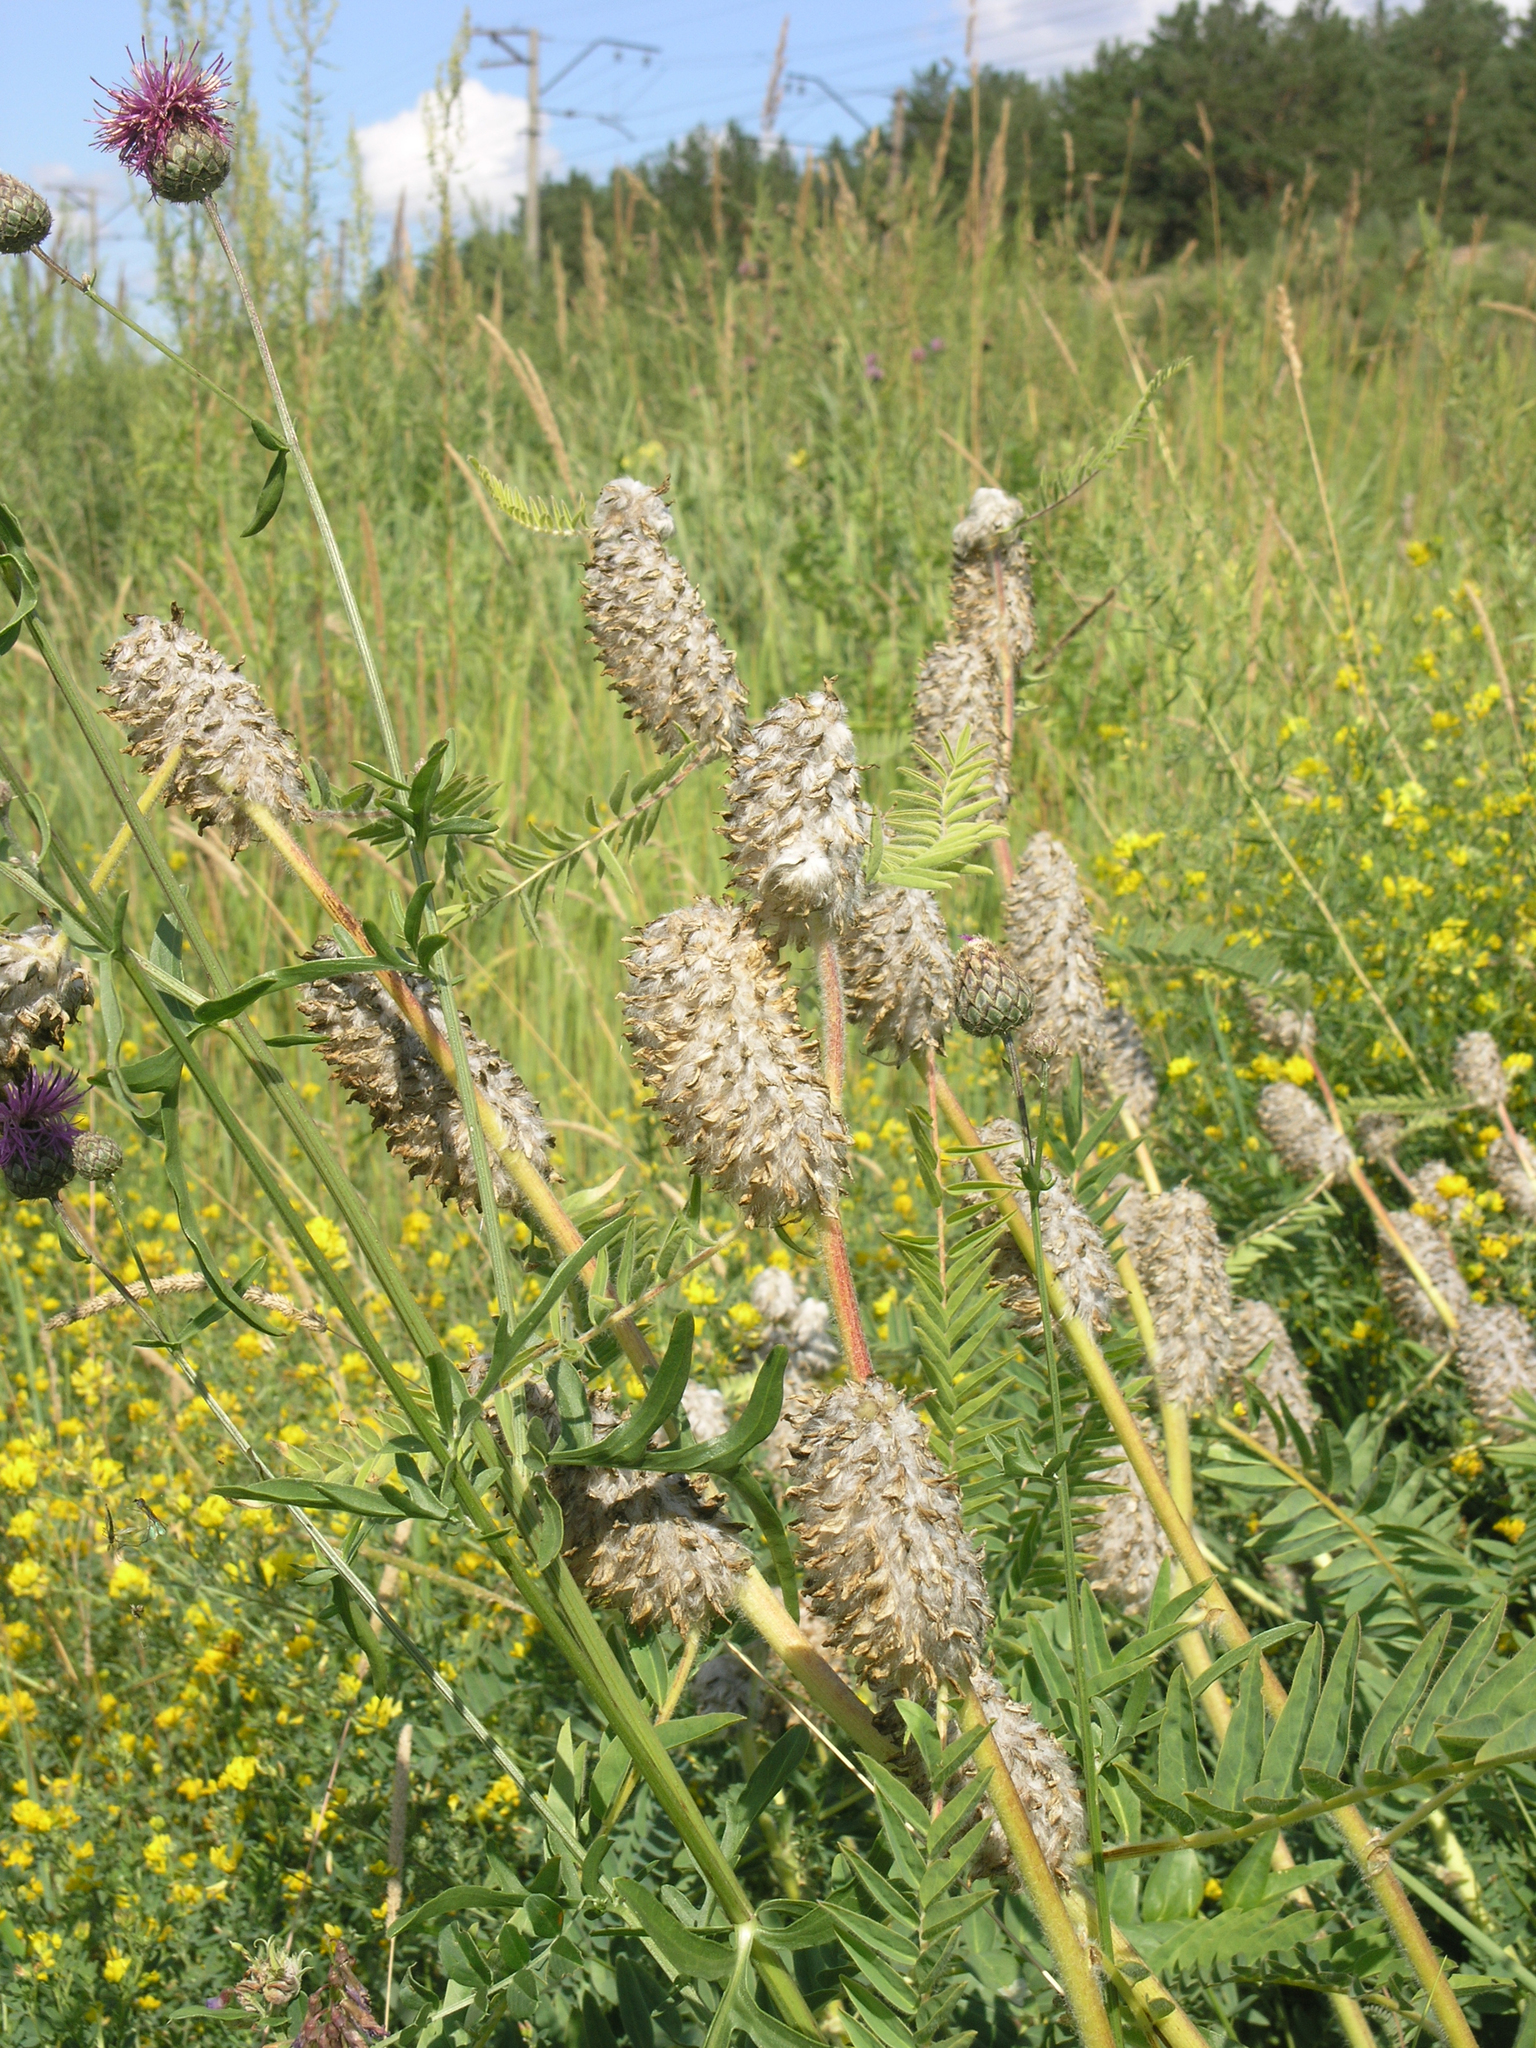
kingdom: Plantae
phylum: Tracheophyta
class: Magnoliopsida
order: Fabales
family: Fabaceae
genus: Astragalus
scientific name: Astragalus alopecurus
